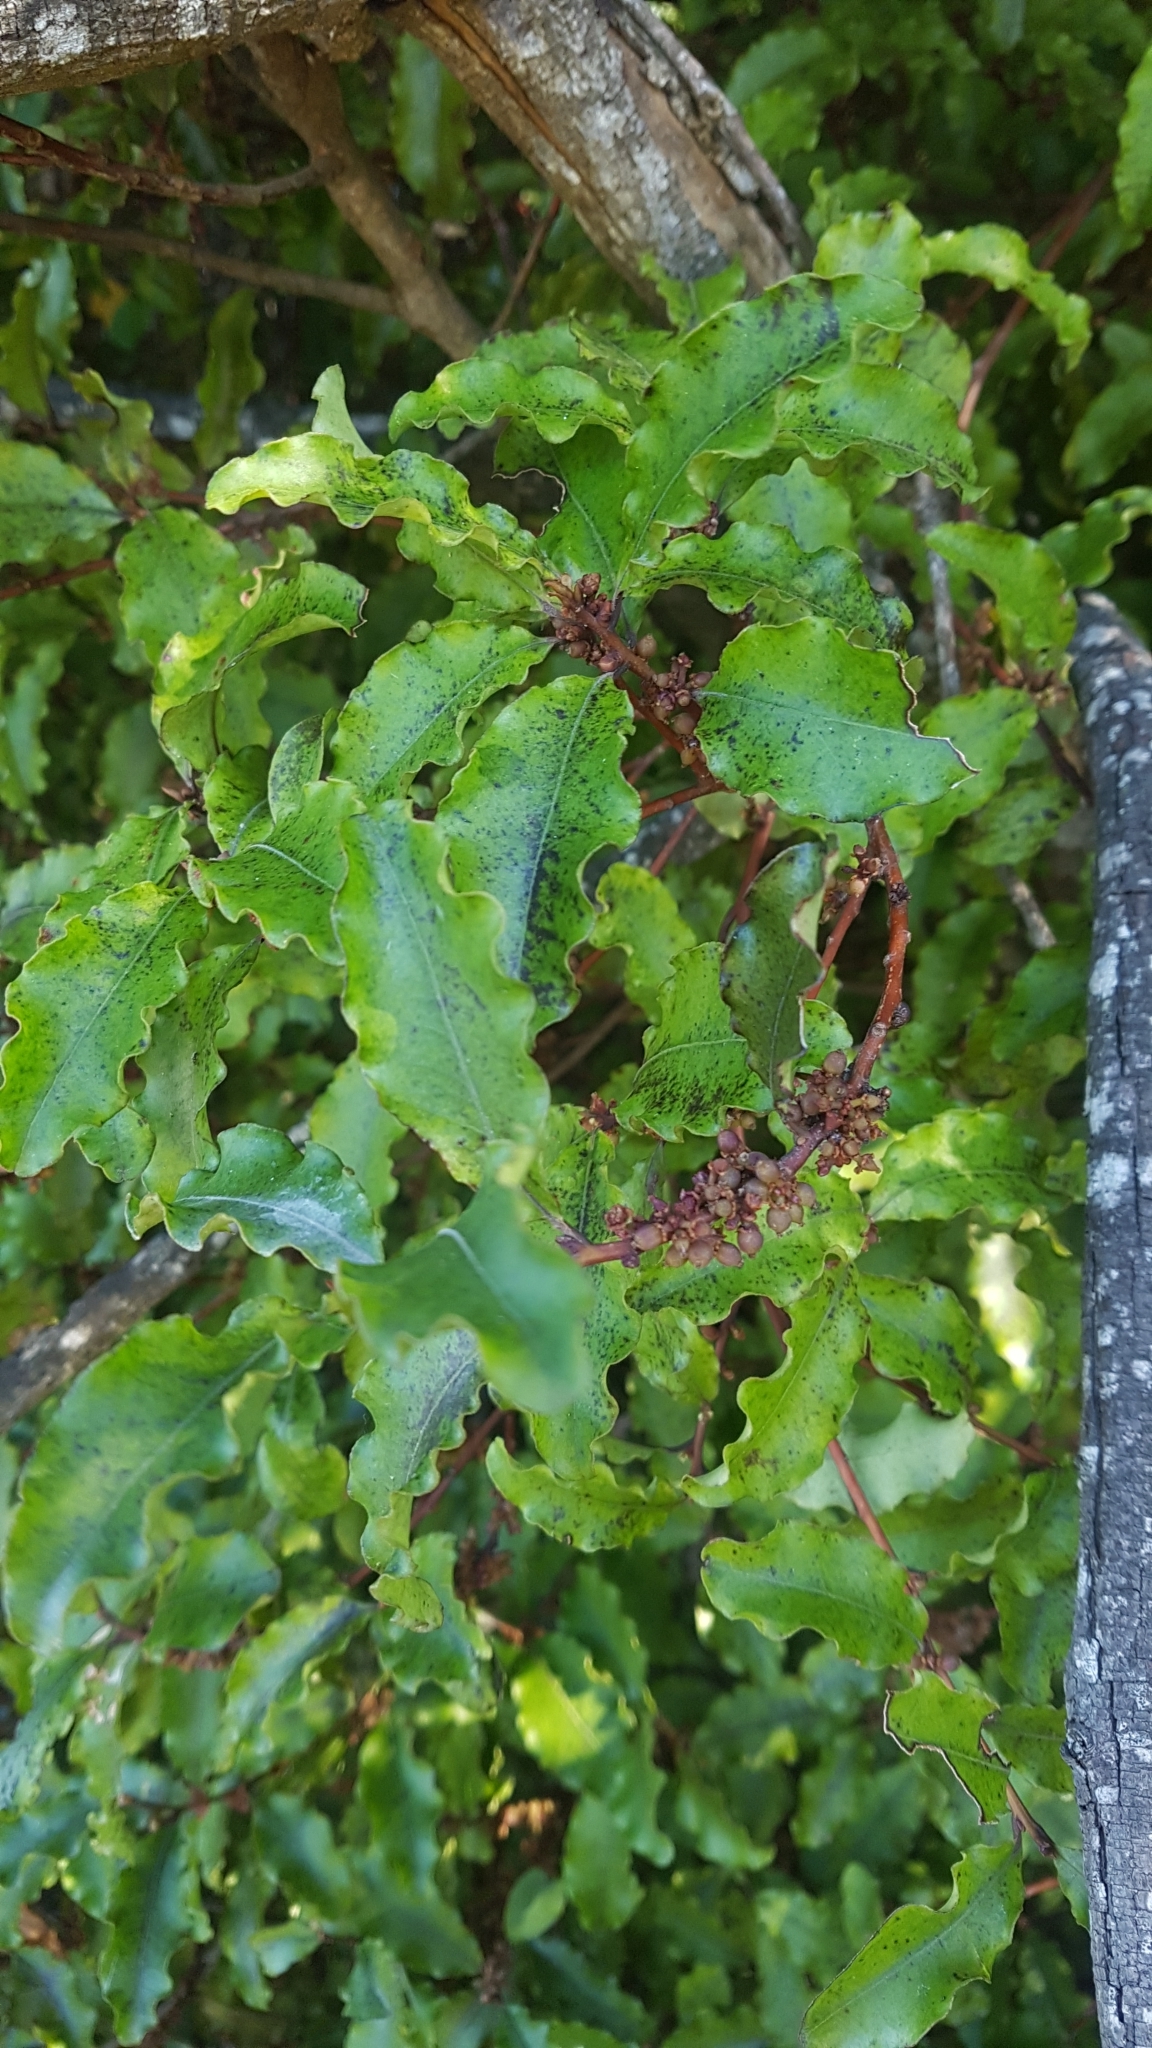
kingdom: Plantae
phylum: Tracheophyta
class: Magnoliopsida
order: Ericales
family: Primulaceae
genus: Myrsine
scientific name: Myrsine australis
